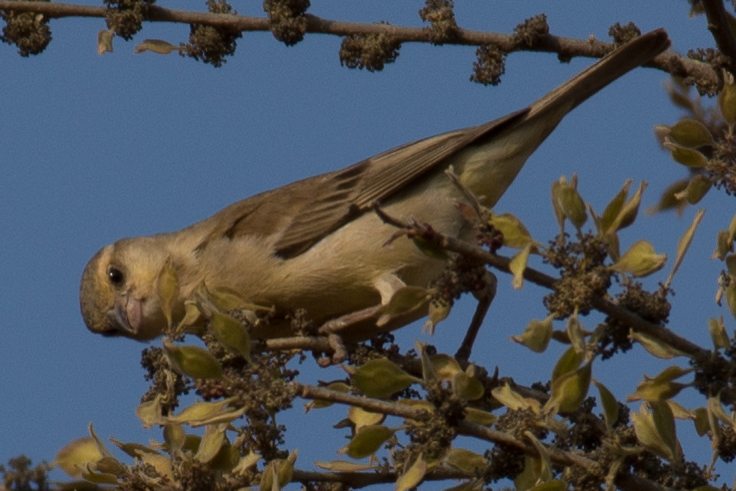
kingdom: Animalia
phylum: Chordata
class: Aves
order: Passeriformes
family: Passeridae
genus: Passer
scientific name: Passer flaveolus
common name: Plain-backed sparrow
